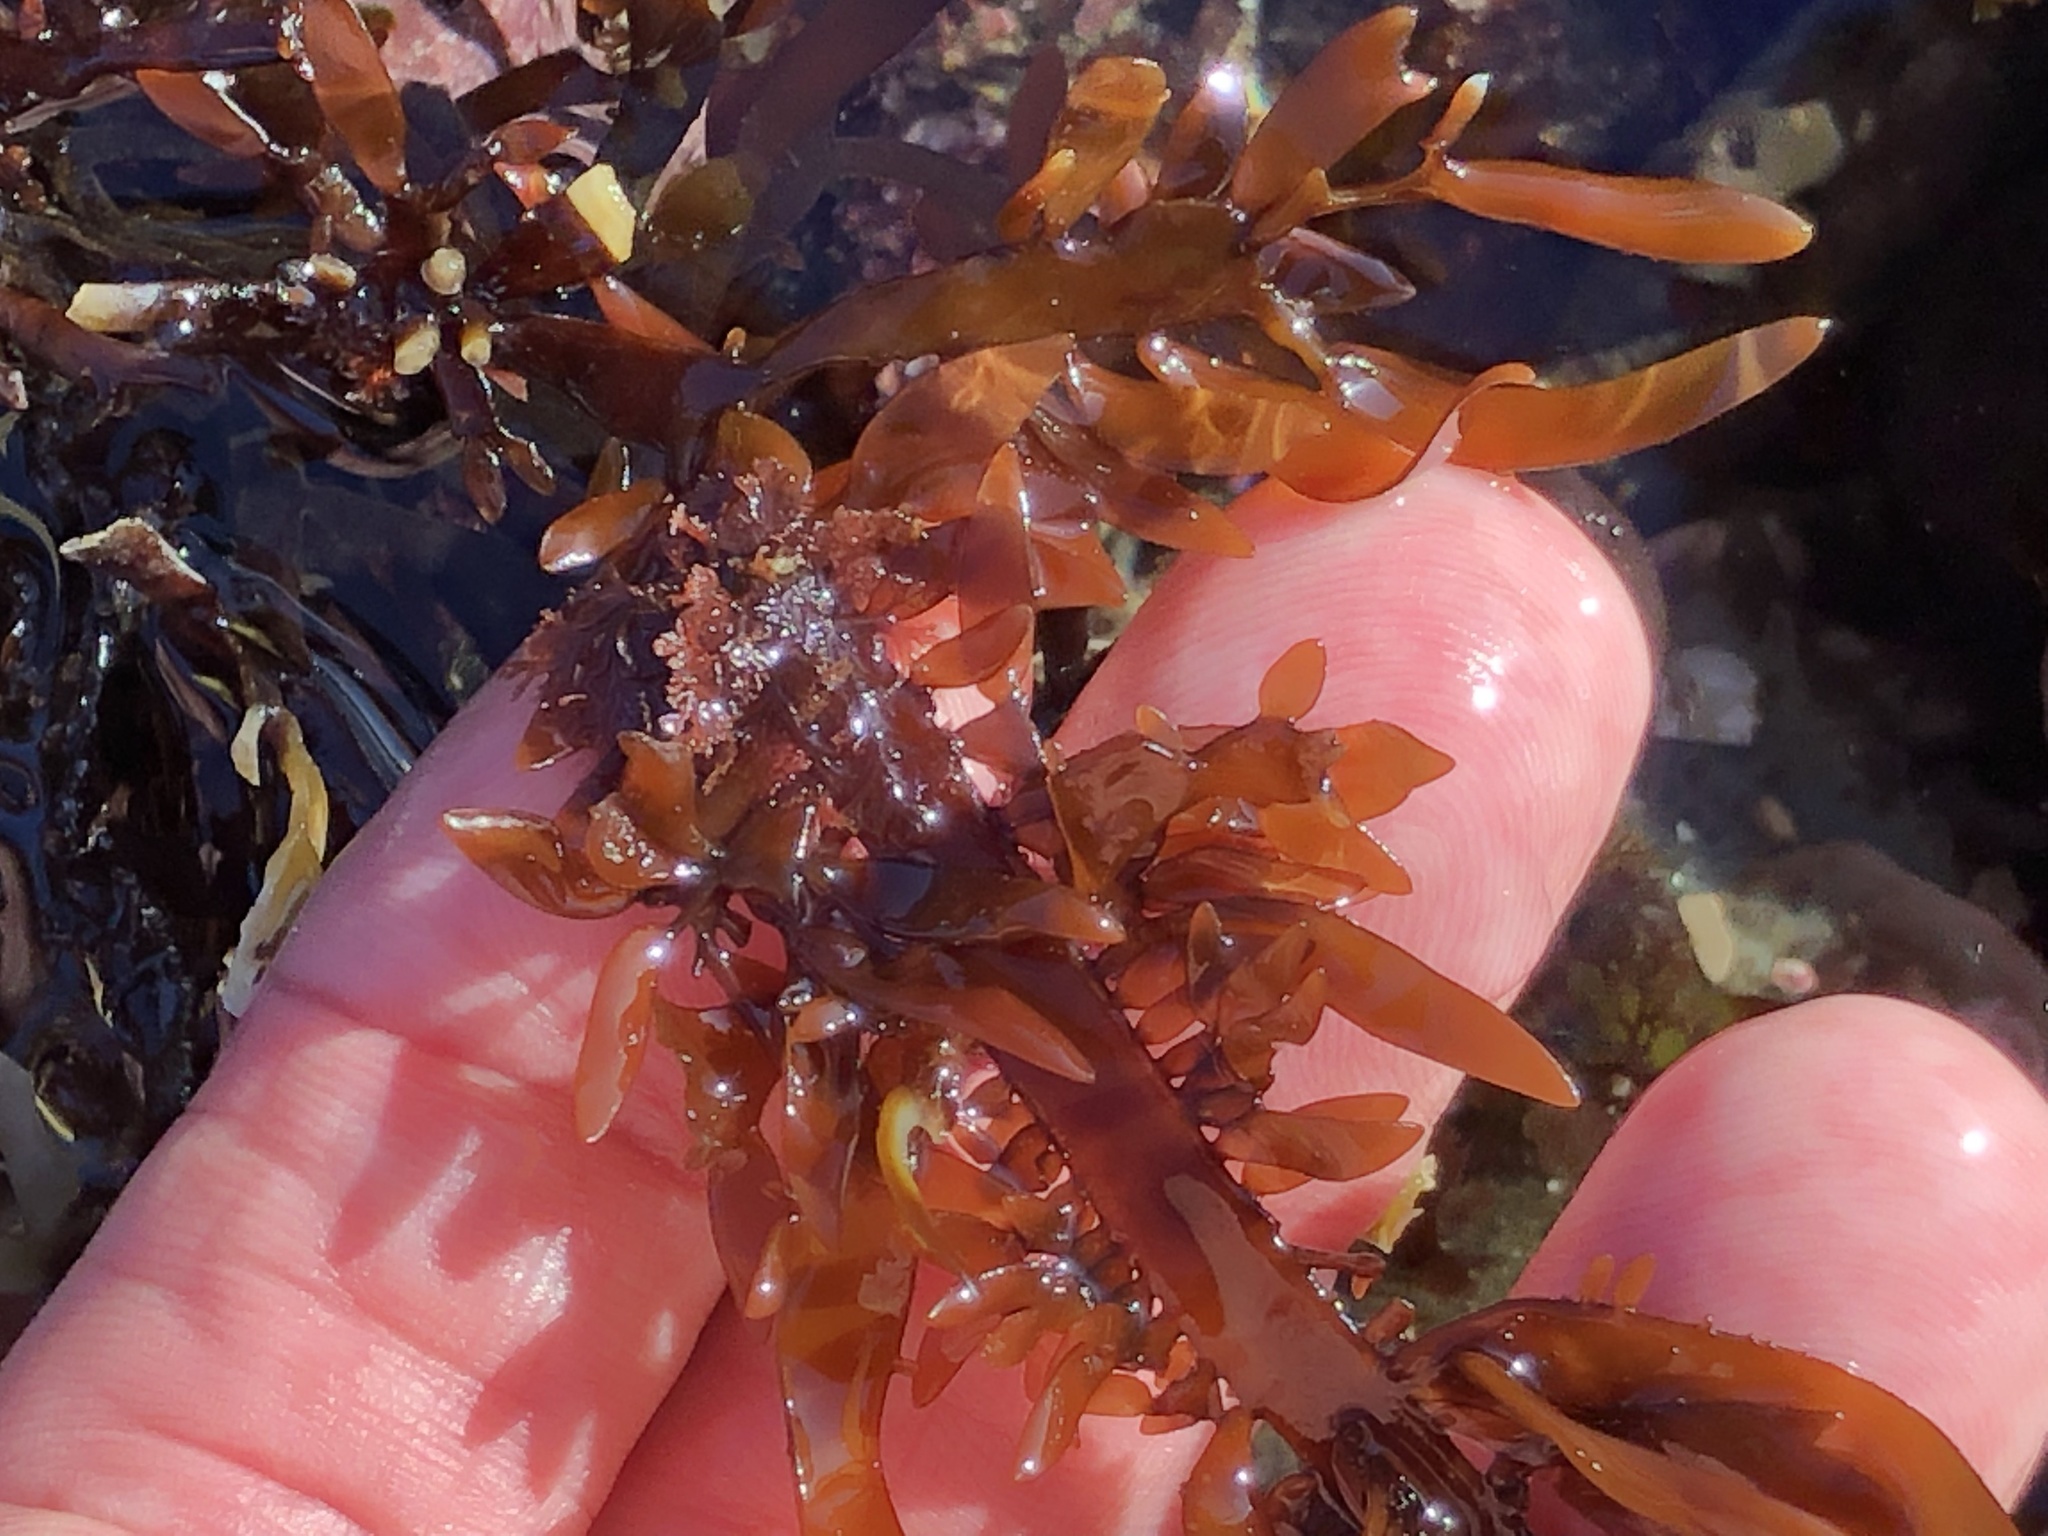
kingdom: Plantae
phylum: Rhodophyta
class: Florideophyceae
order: Halymeniales
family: Halymeniaceae
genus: Grateloupia
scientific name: Grateloupia Prionitis lanceolata
